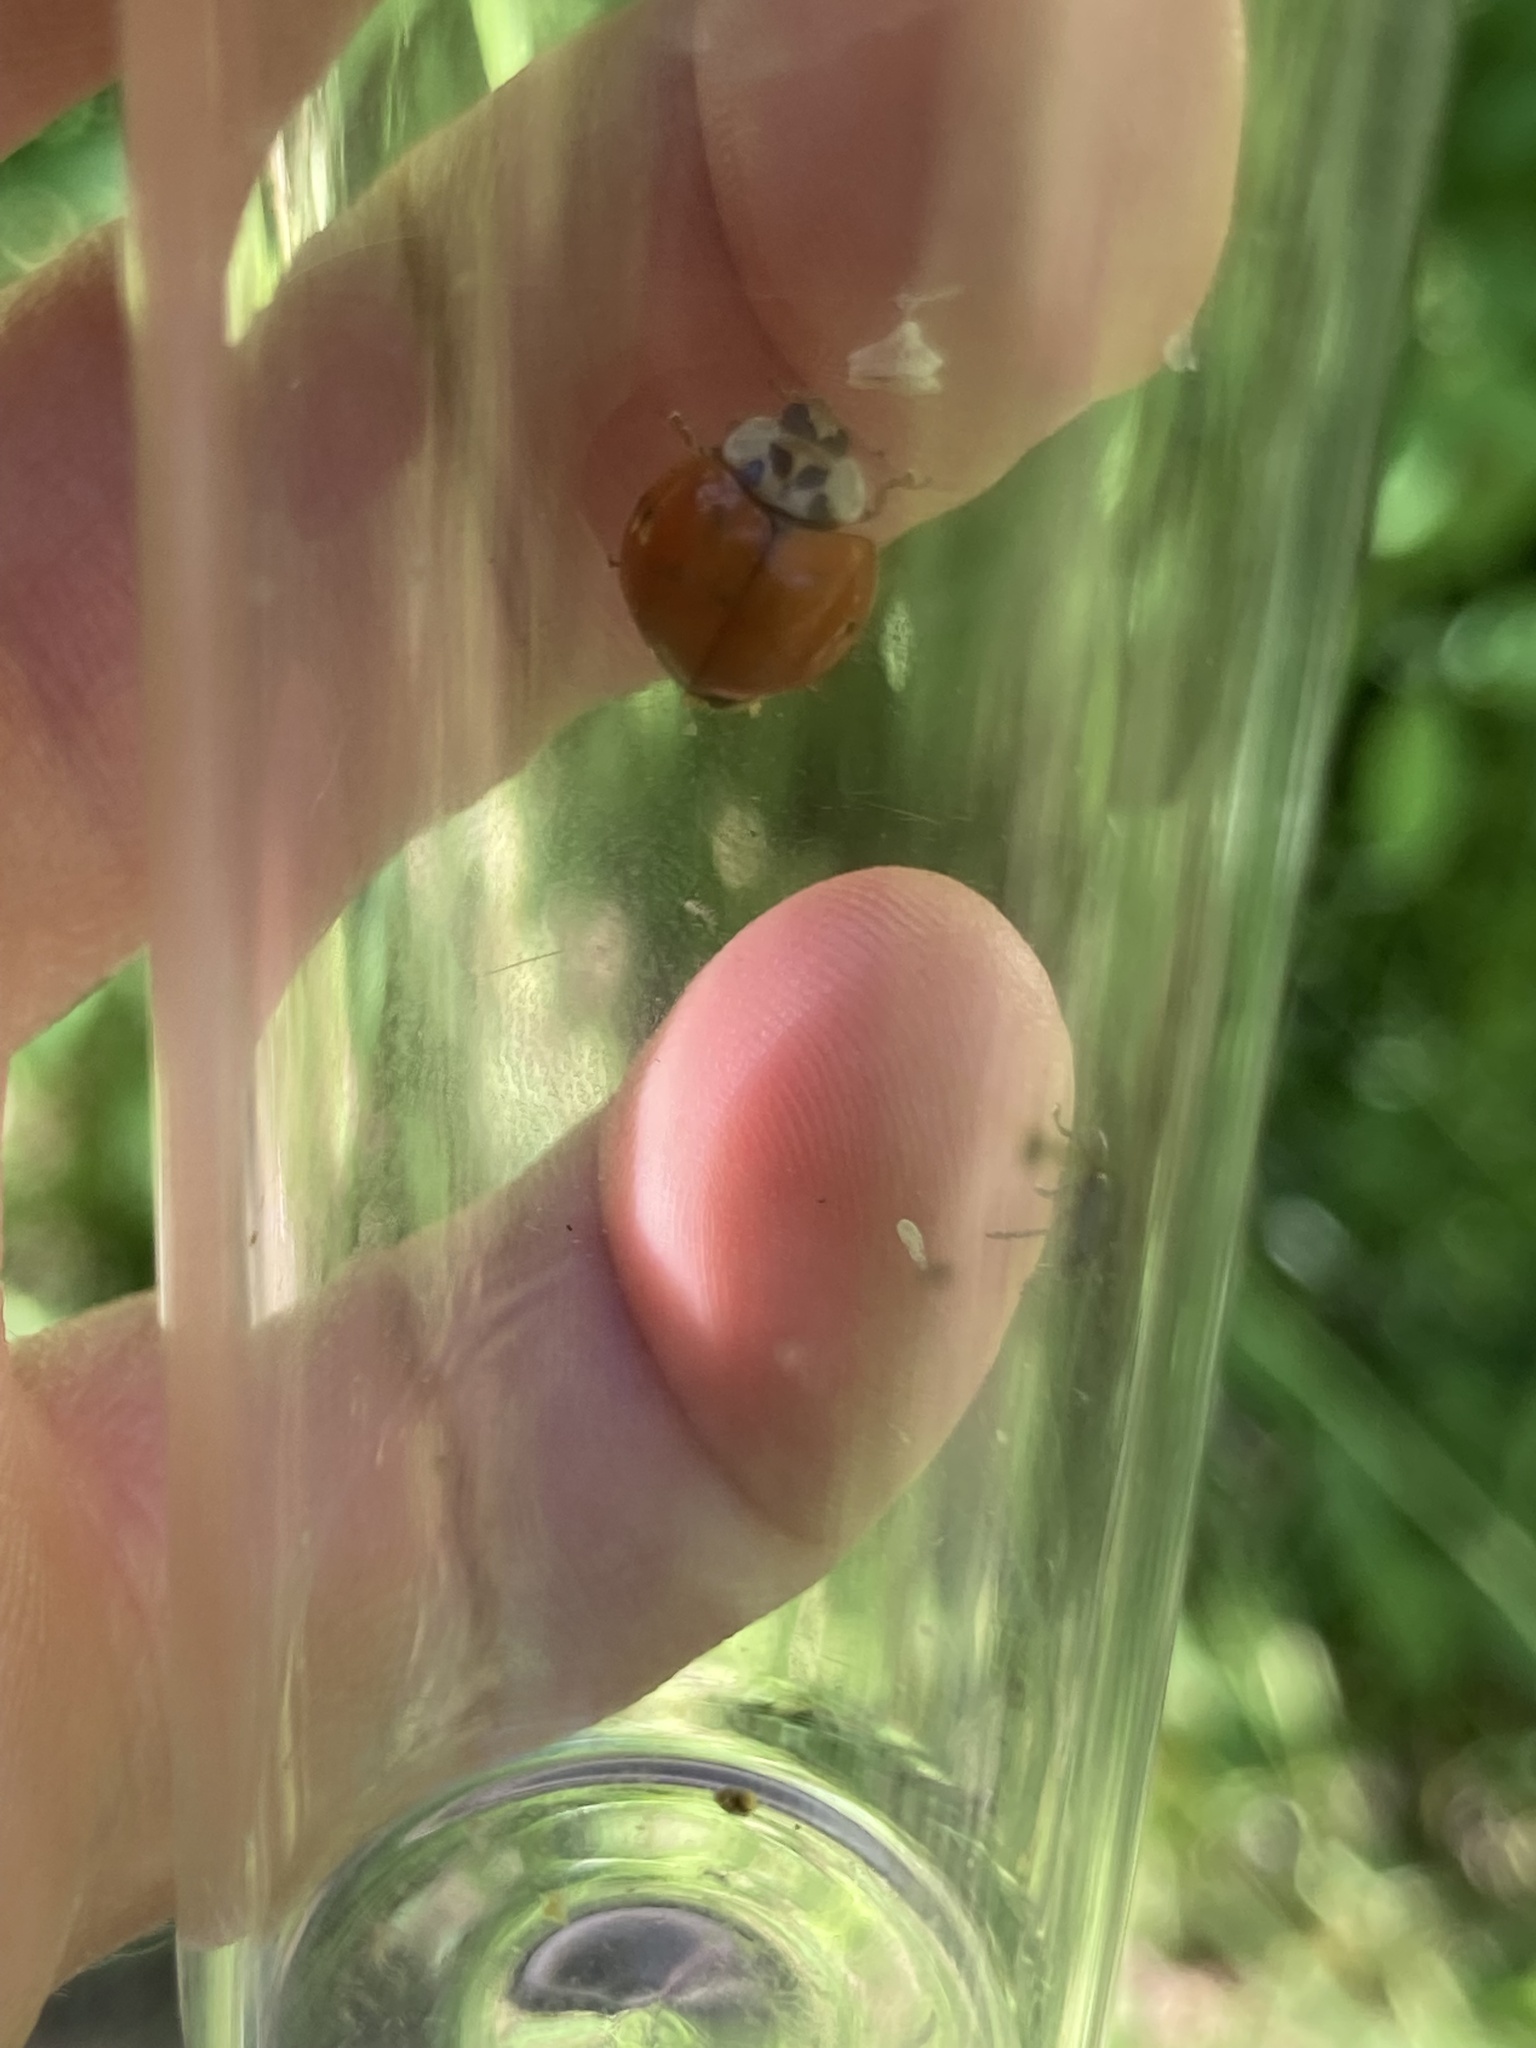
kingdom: Animalia
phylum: Arthropoda
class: Insecta
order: Coleoptera
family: Coccinellidae
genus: Harmonia
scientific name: Harmonia axyridis
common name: Harlequin ladybird
